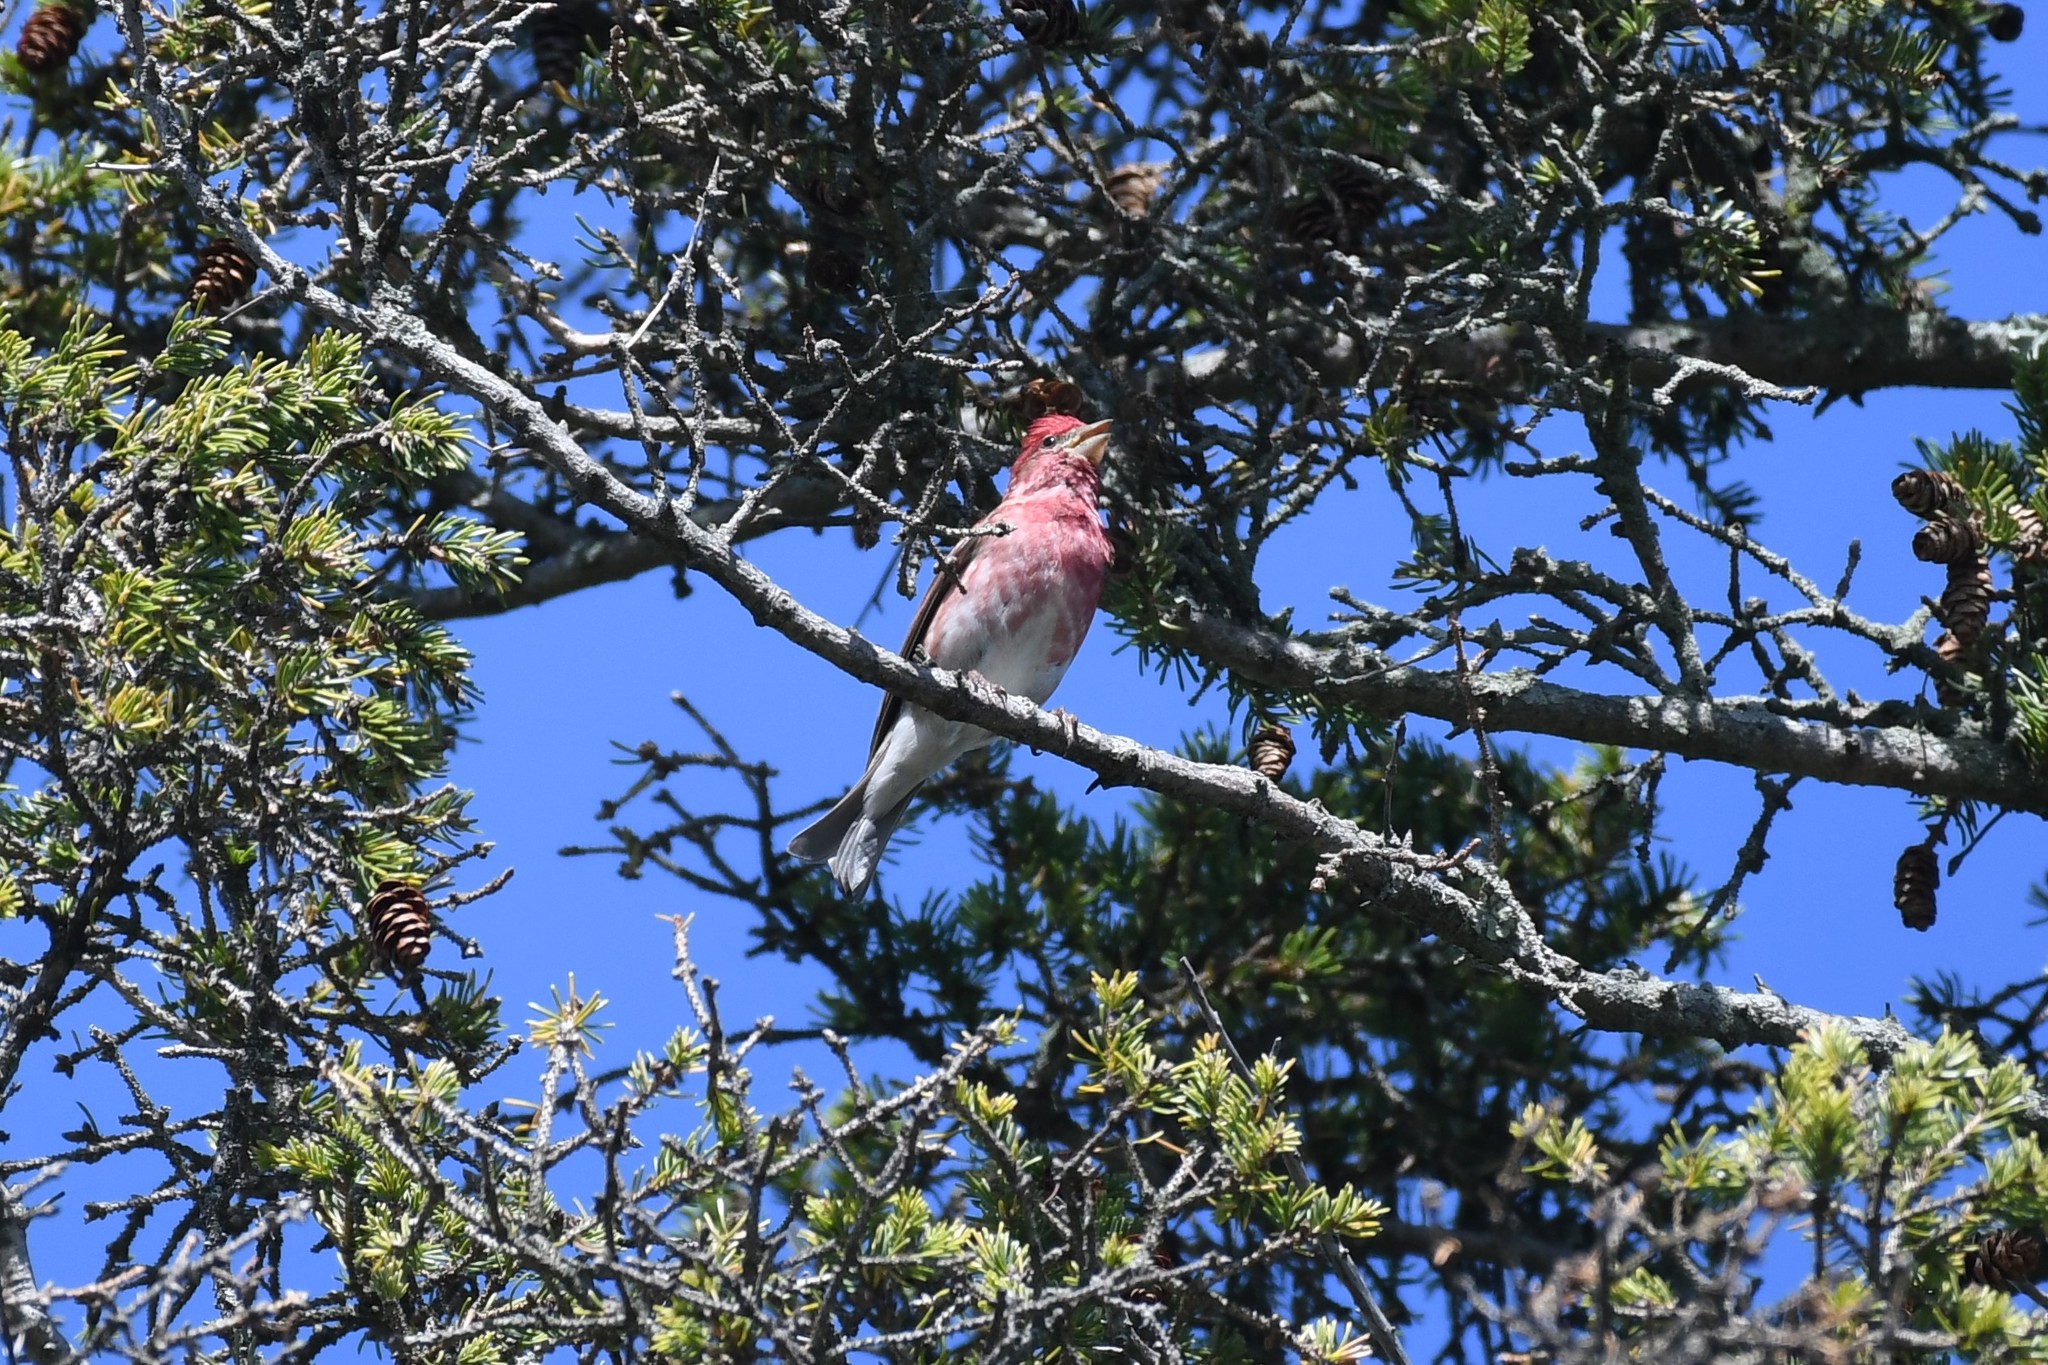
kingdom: Animalia
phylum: Chordata
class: Aves
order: Passeriformes
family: Fringillidae
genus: Haemorhous
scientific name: Haemorhous purpureus
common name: Purple finch
